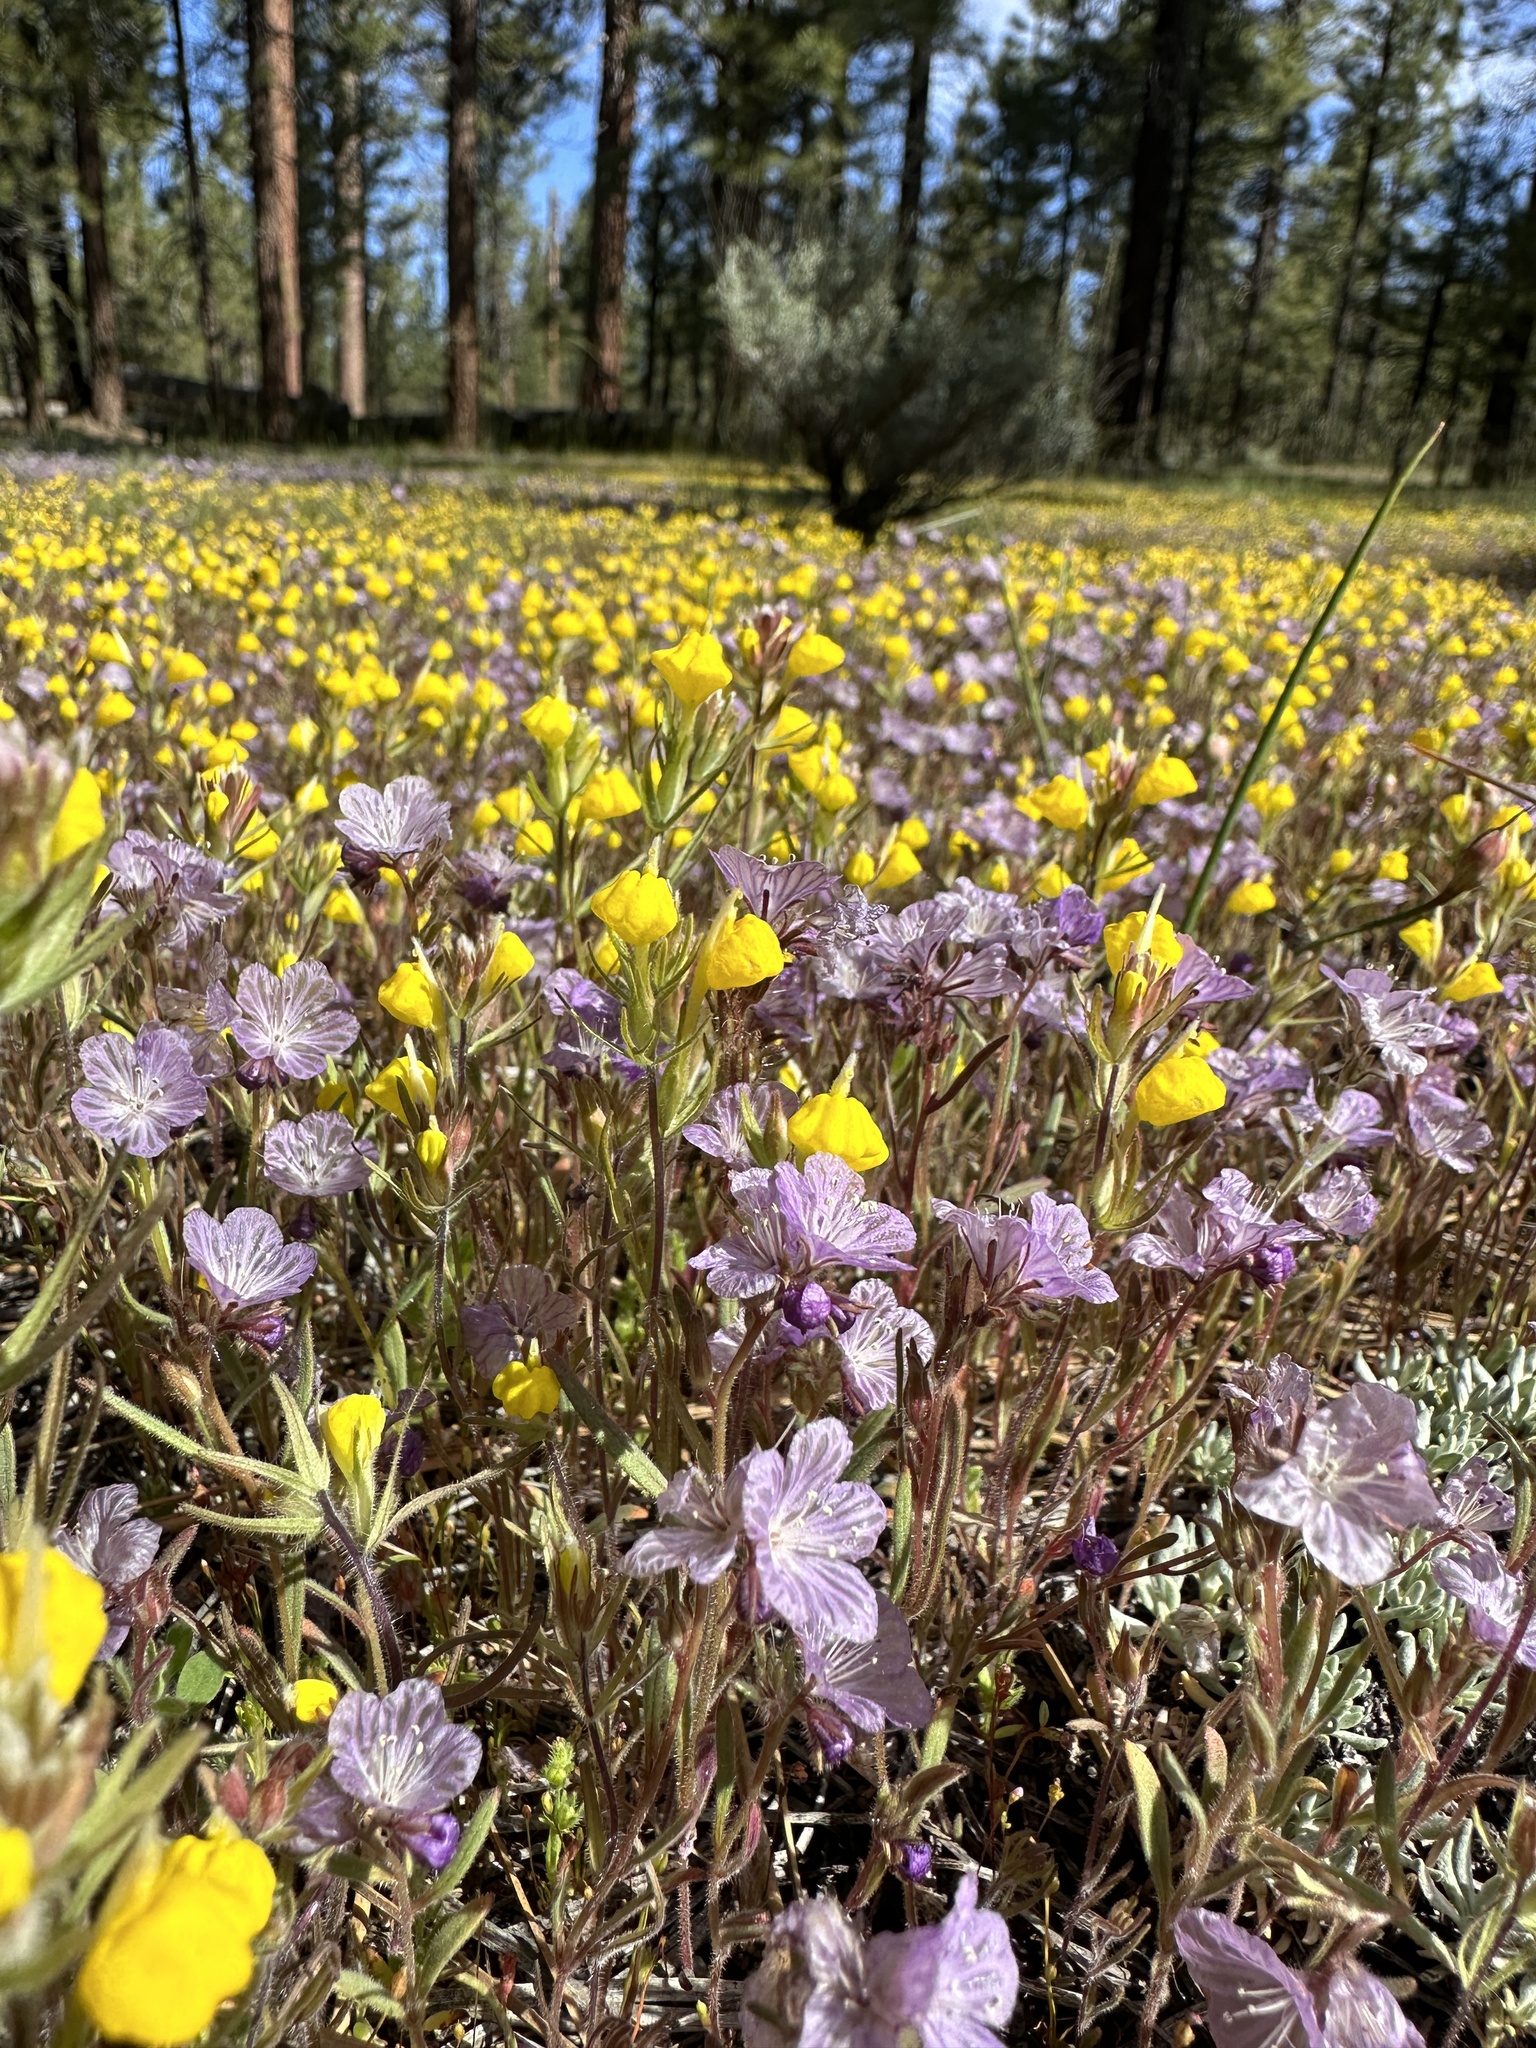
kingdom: Plantae
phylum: Tracheophyta
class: Magnoliopsida
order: Lamiales
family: Orobanchaceae
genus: Castilleja
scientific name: Castilleja lasiorhyncha
